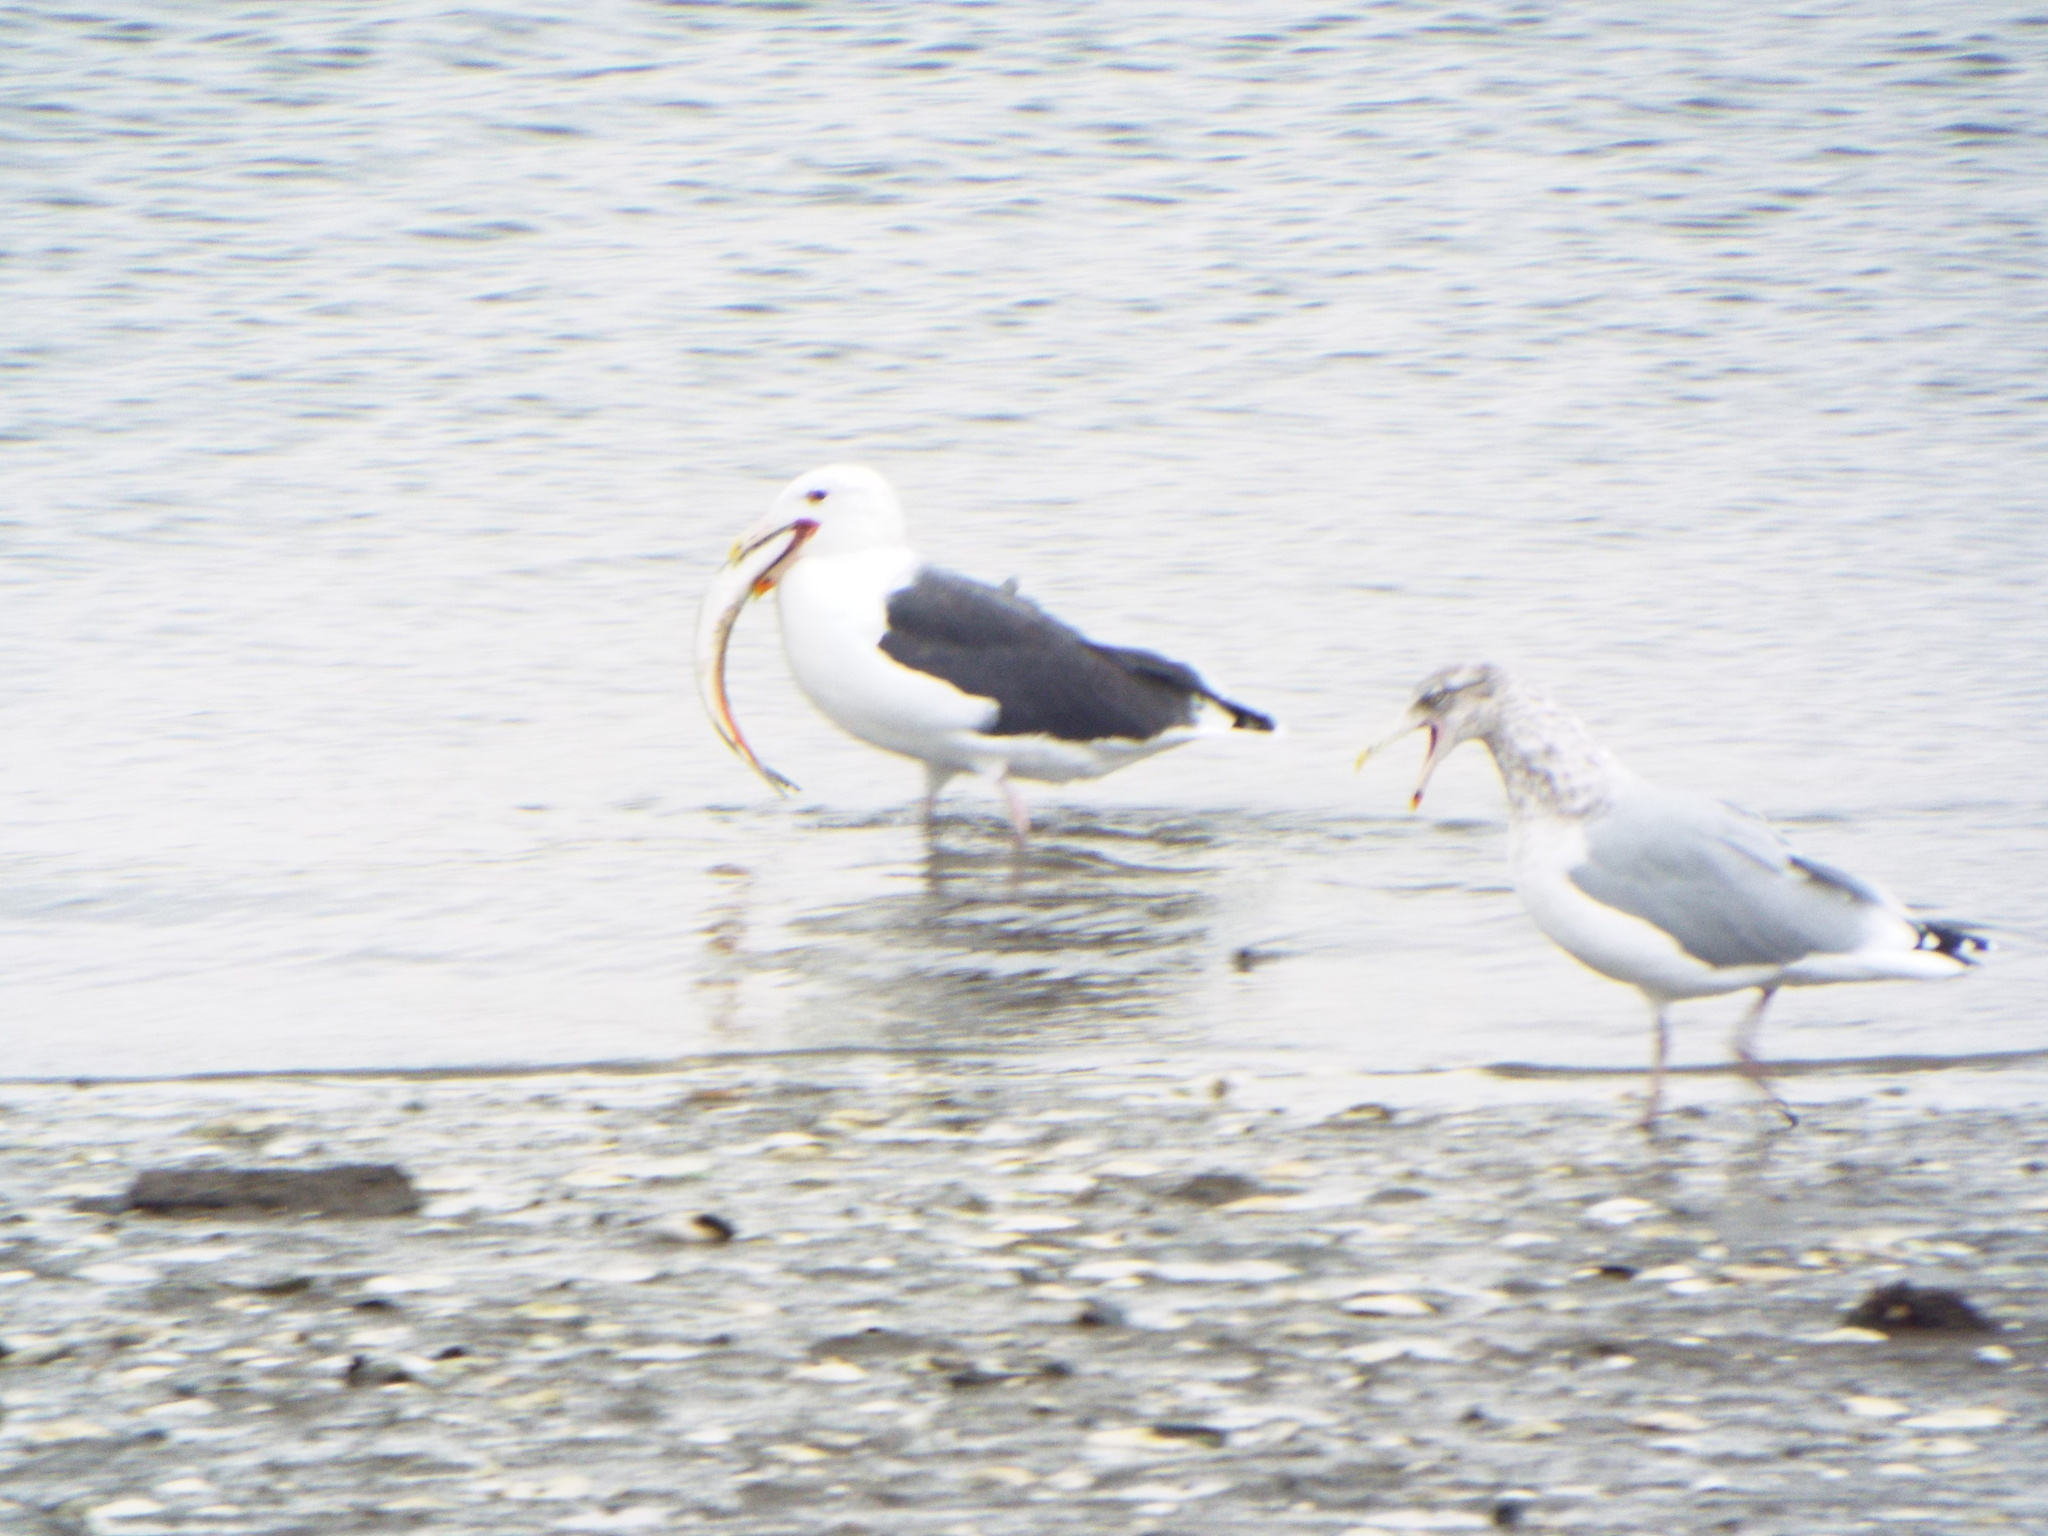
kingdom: Animalia
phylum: Chordata
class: Aves
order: Charadriiformes
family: Laridae
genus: Larus
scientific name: Larus marinus
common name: Great black-backed gull
